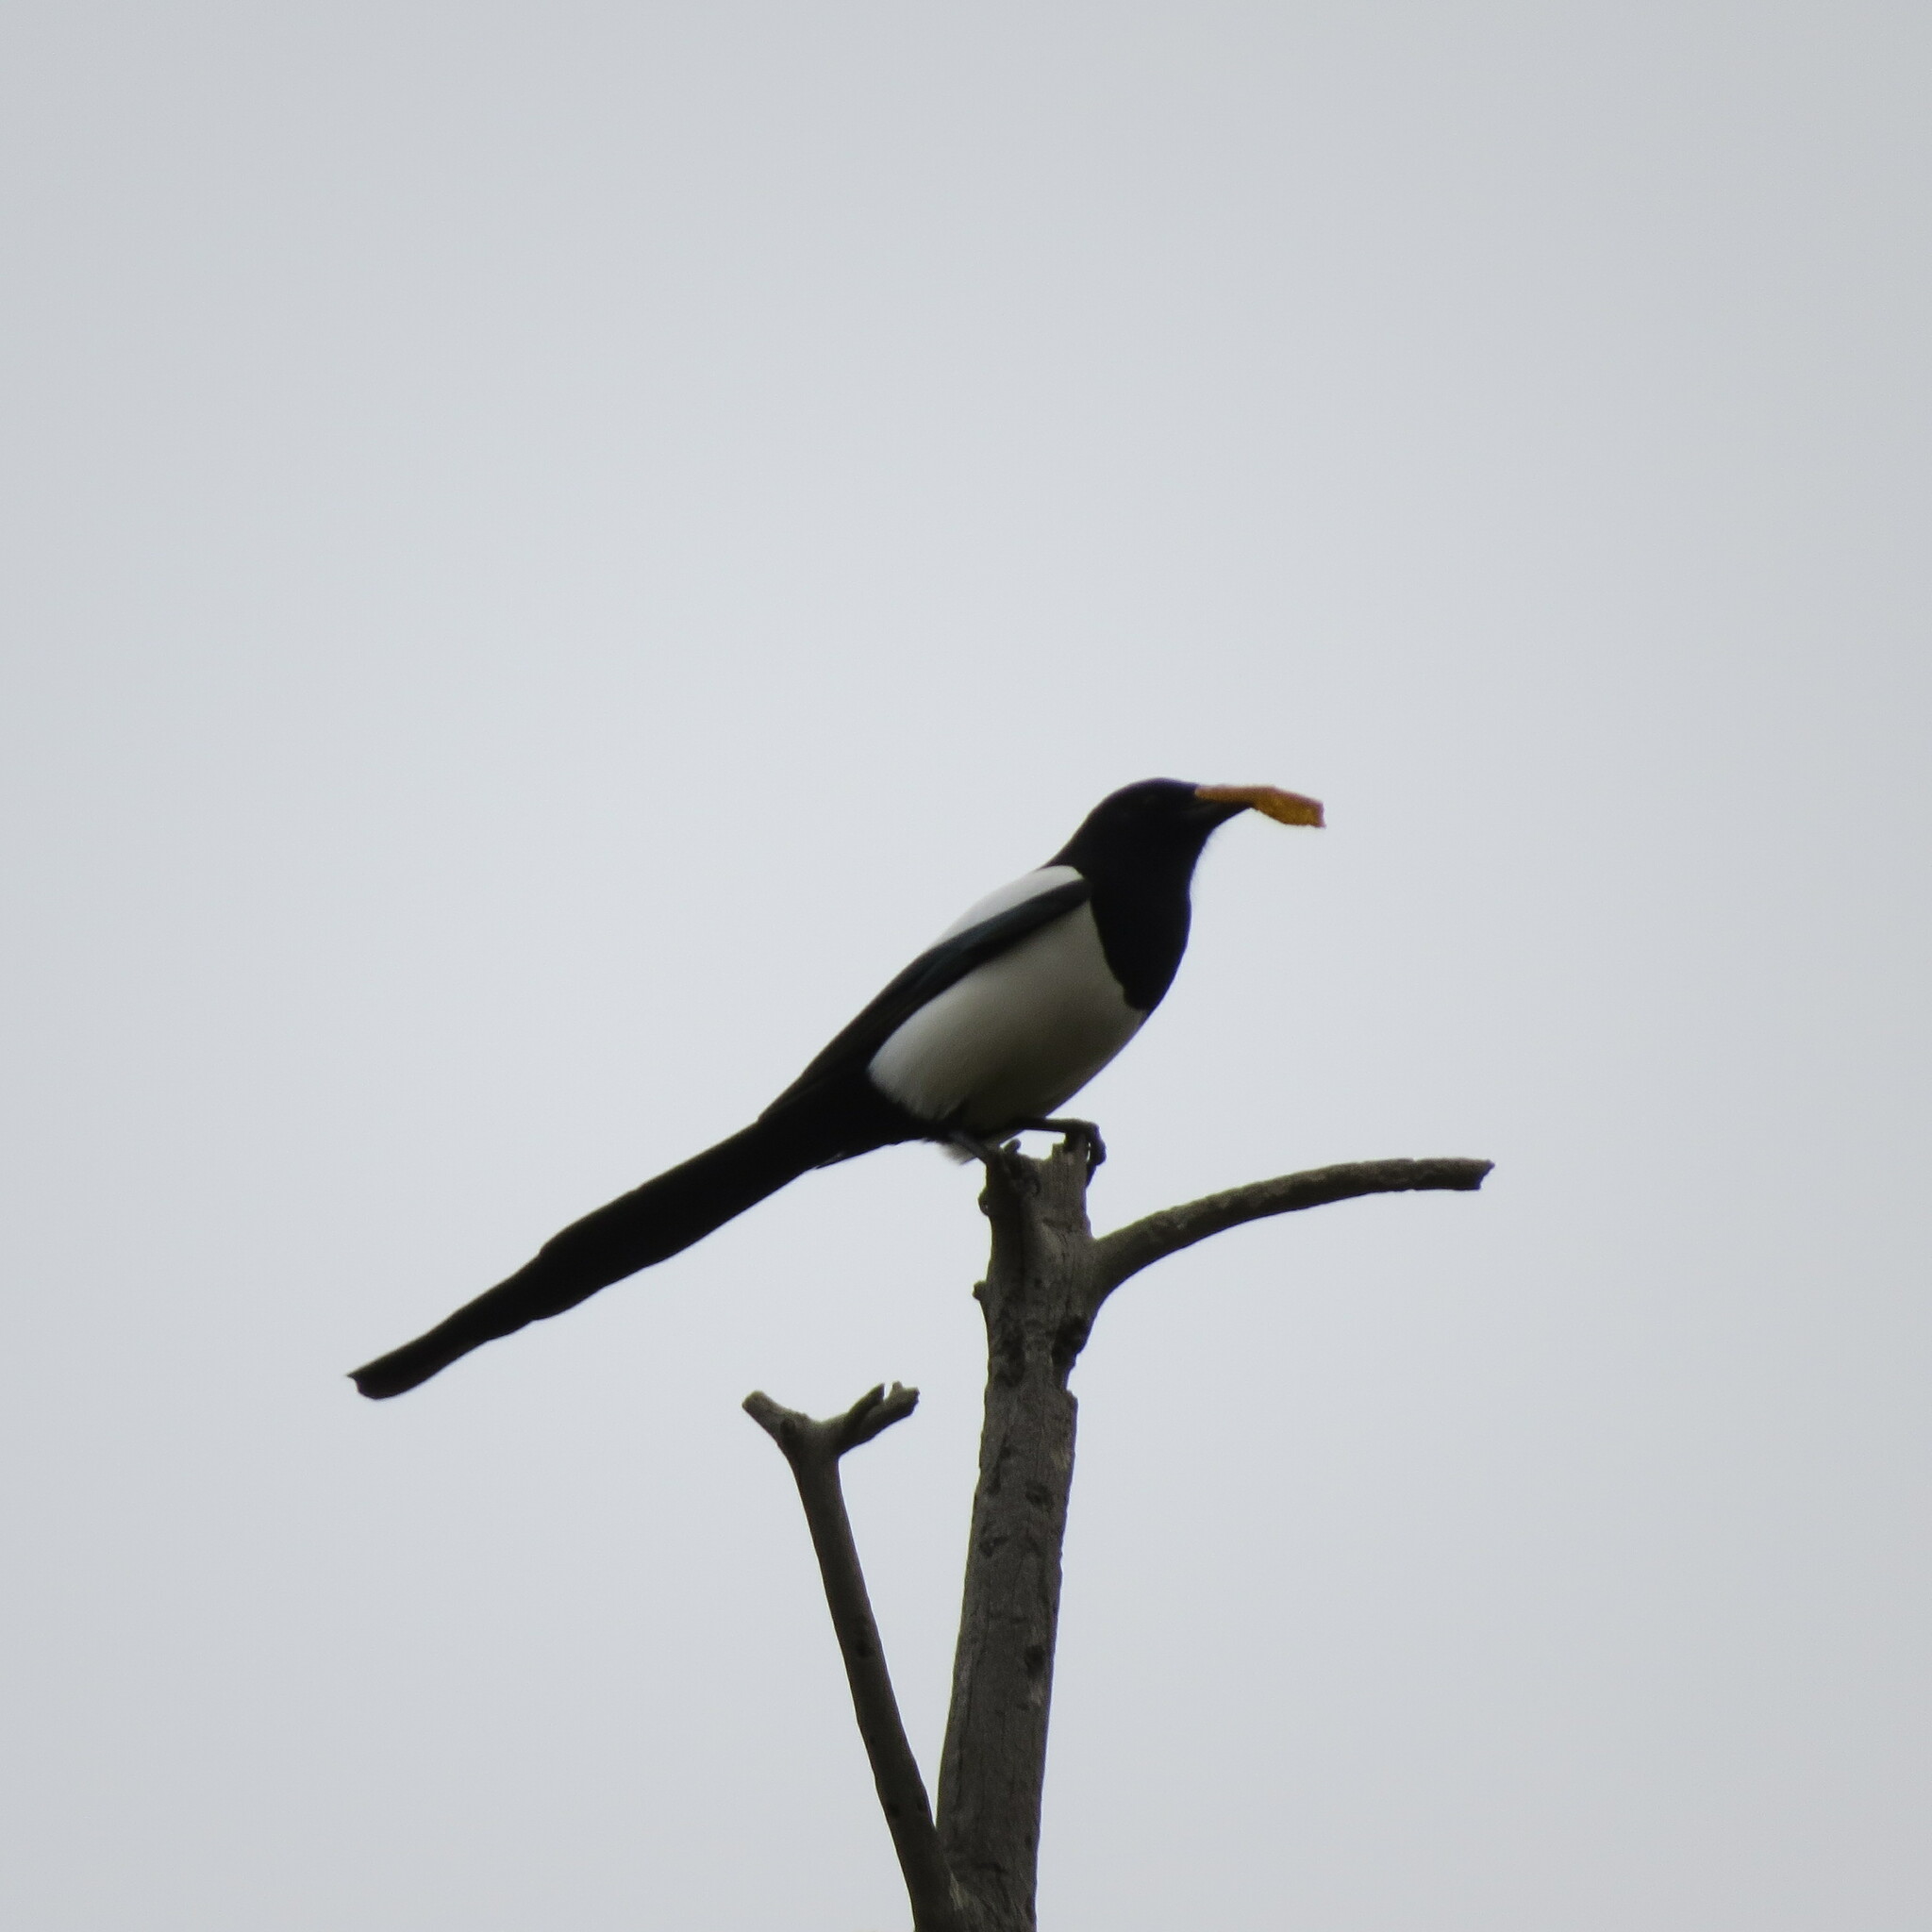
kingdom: Animalia
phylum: Chordata
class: Aves
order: Passeriformes
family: Corvidae
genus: Pica
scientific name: Pica pica
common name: Eurasian magpie
